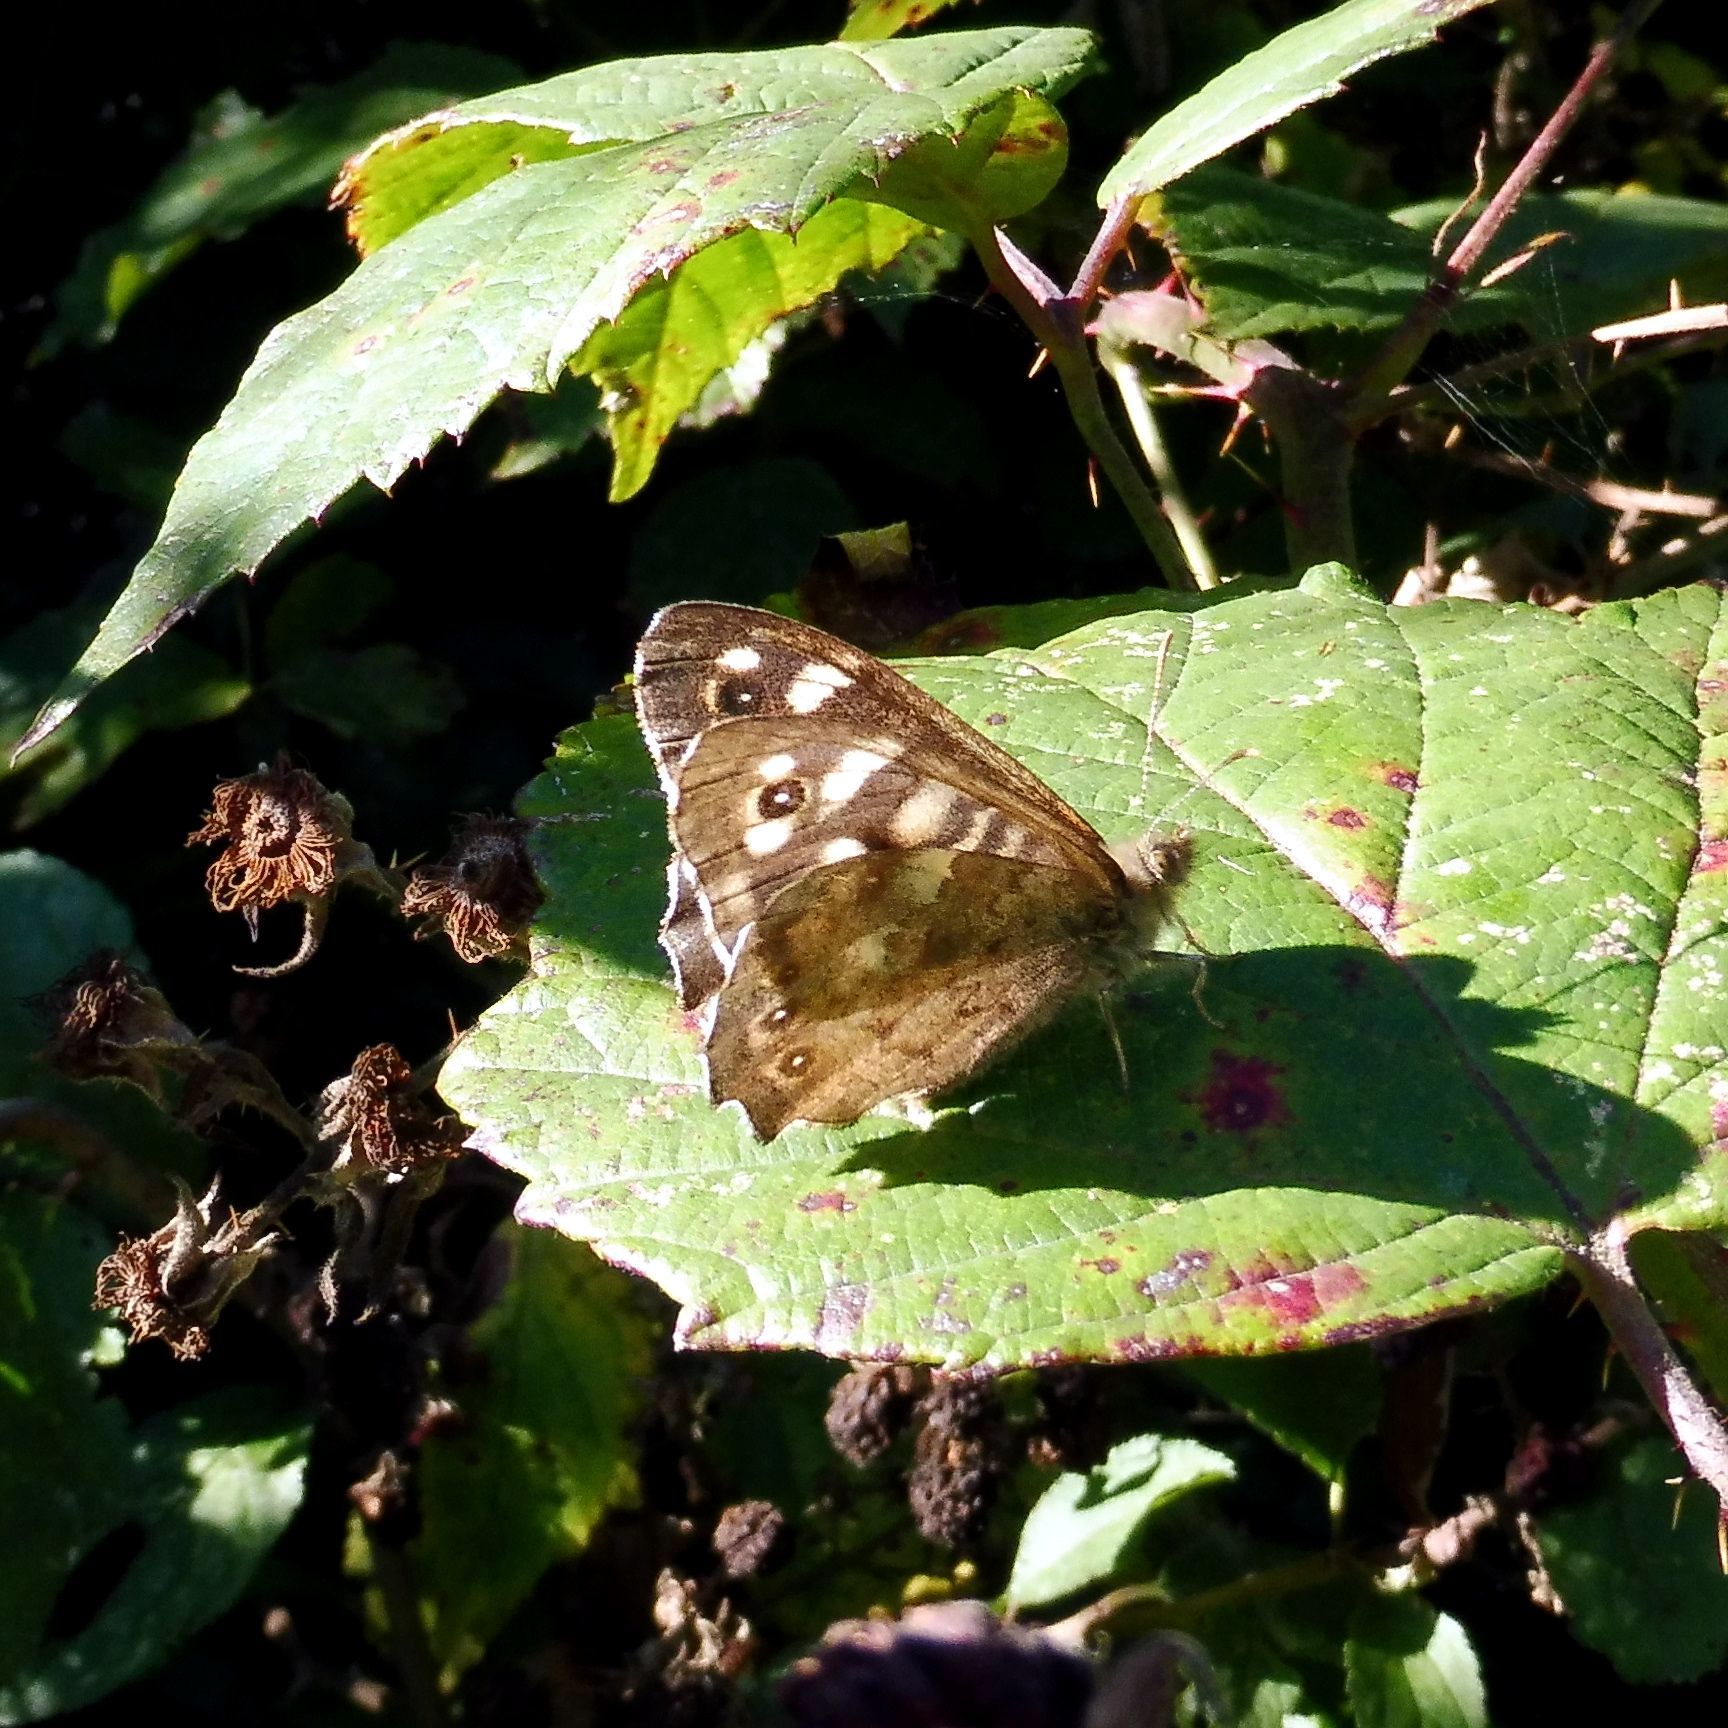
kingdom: Animalia
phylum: Arthropoda
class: Insecta
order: Lepidoptera
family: Nymphalidae
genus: Pararge
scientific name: Pararge aegeria
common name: Speckled wood
